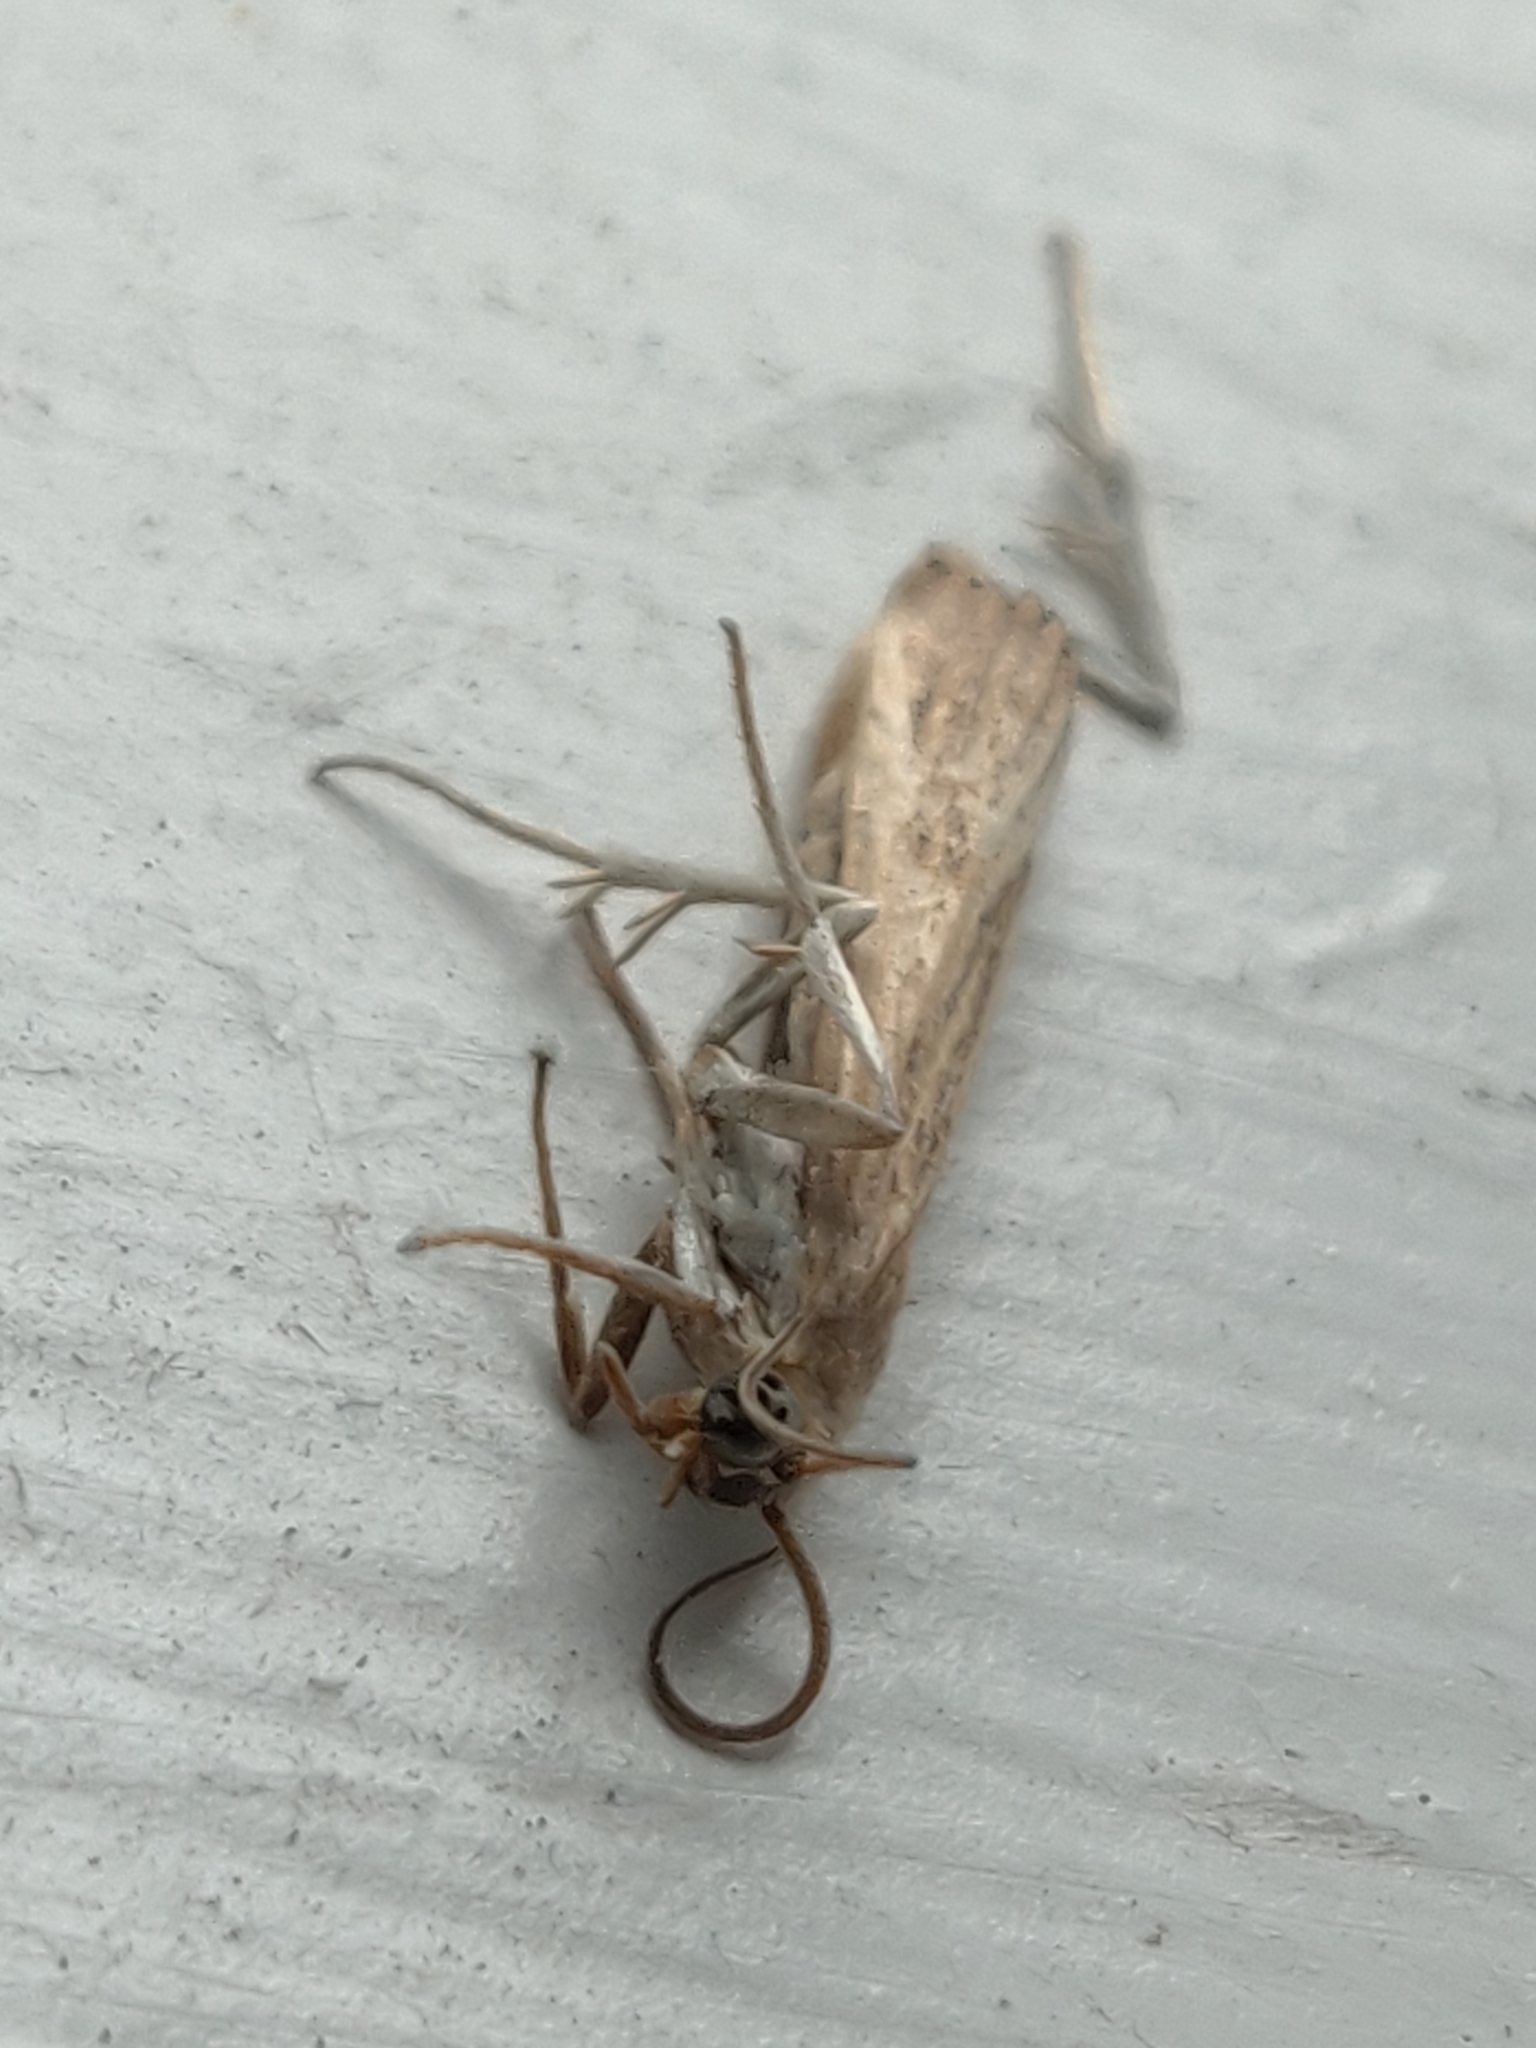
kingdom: Animalia
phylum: Arthropoda
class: Insecta
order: Lepidoptera
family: Crambidae
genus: Parapediasia
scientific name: Parapediasia teterellus
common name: Bluegrass webworm moth
